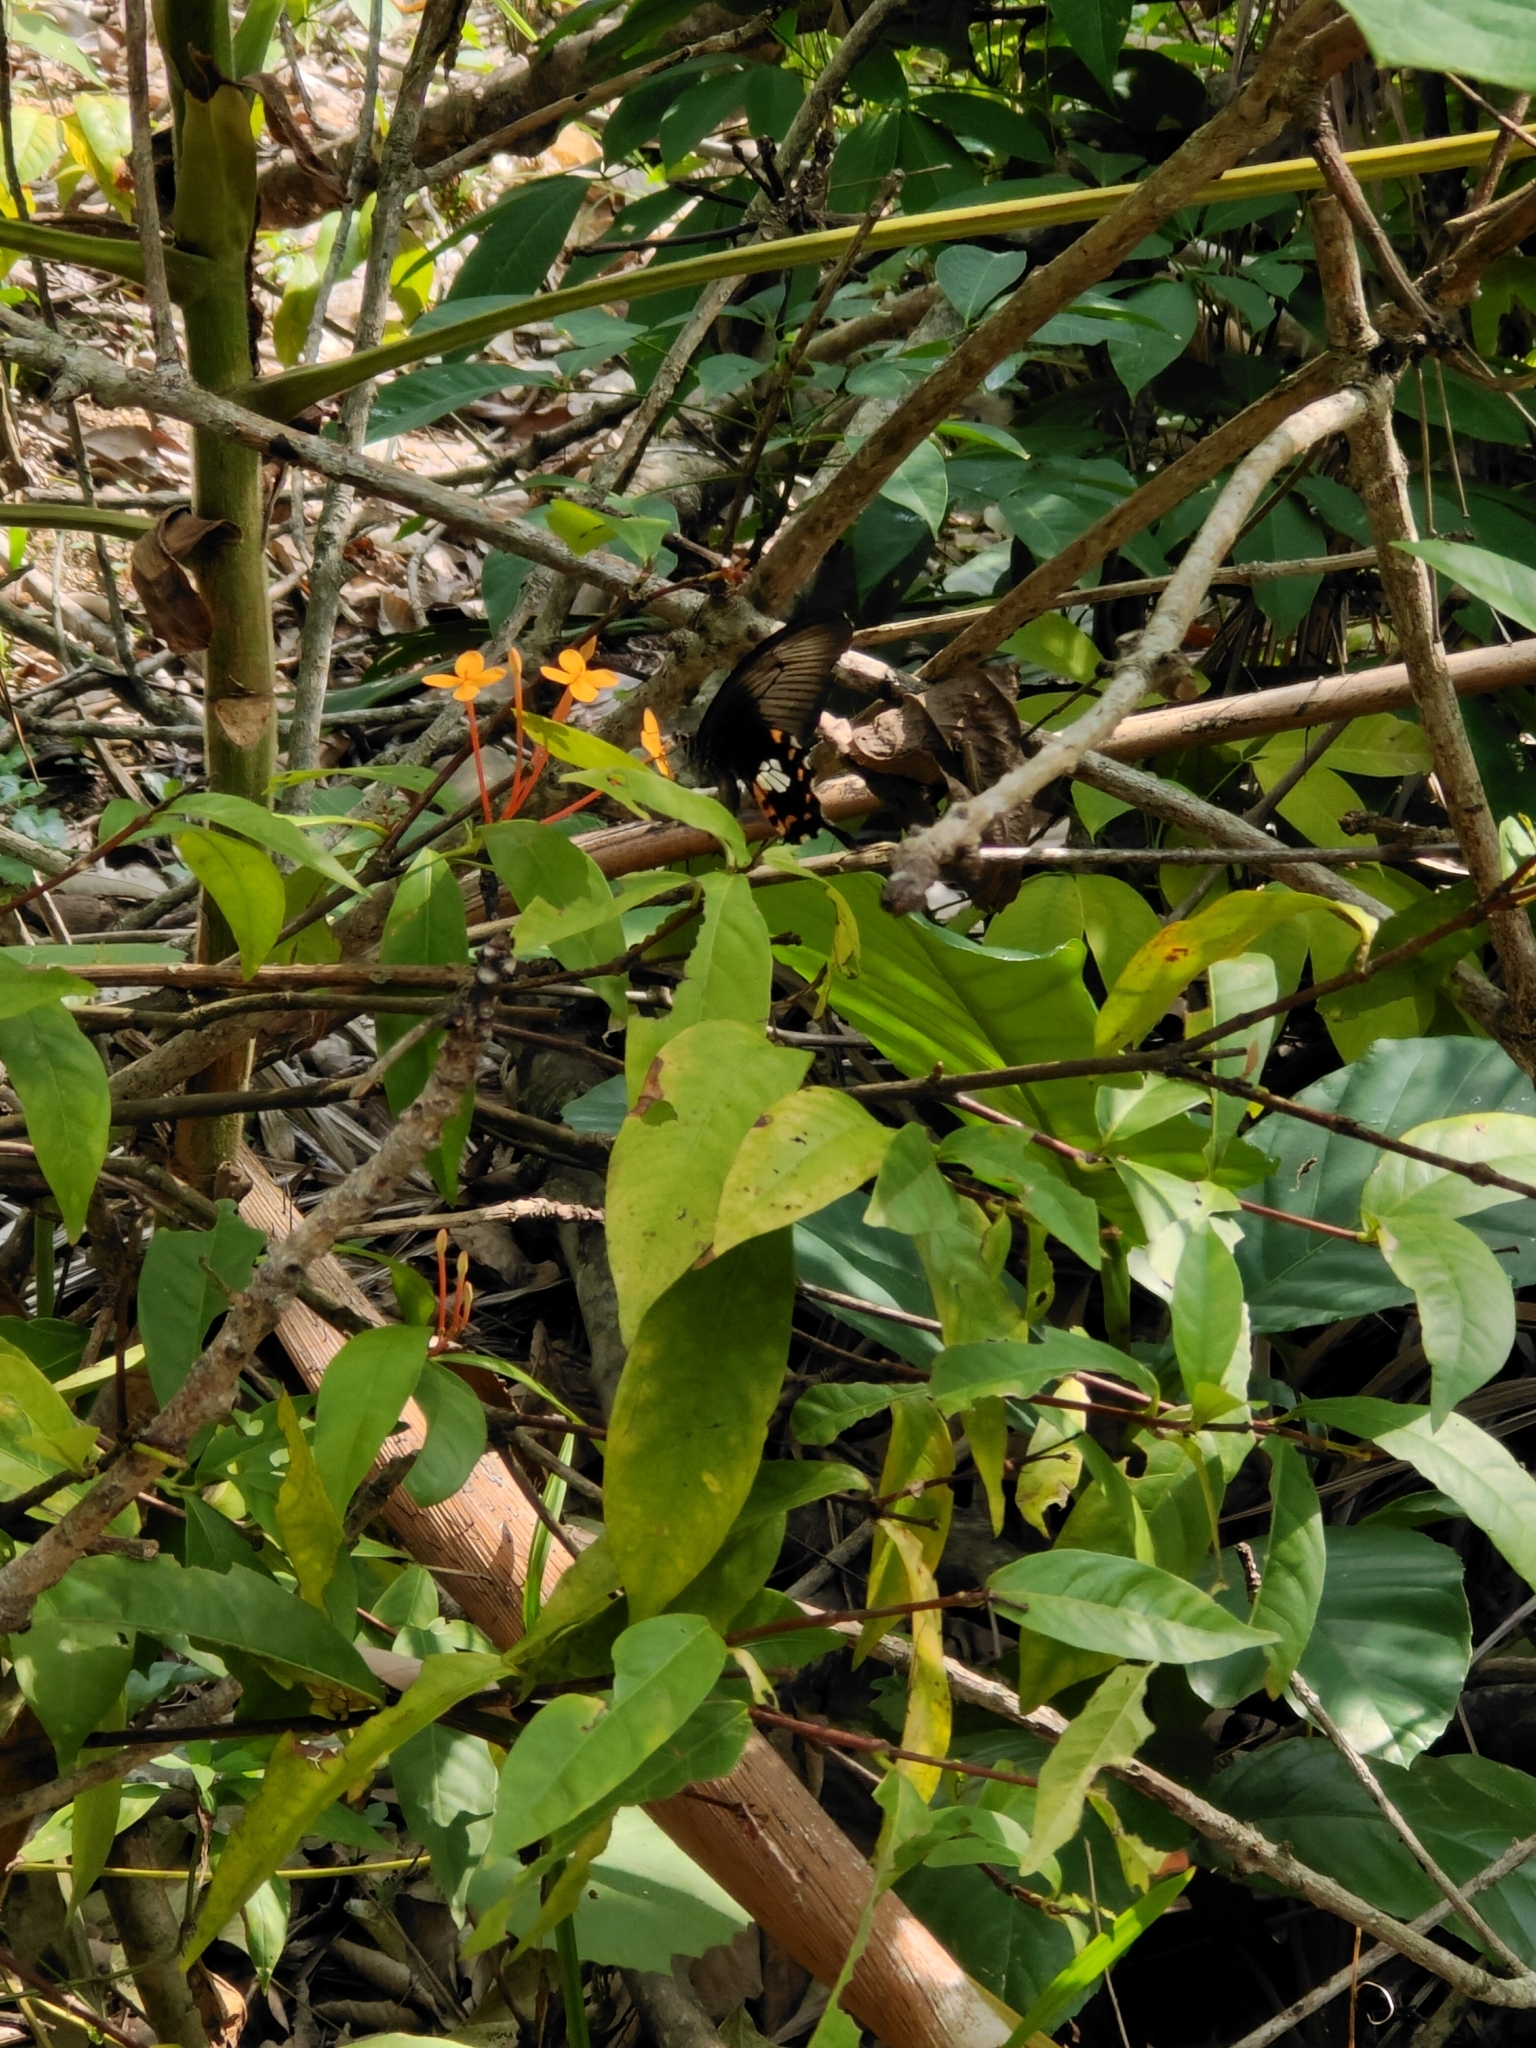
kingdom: Animalia
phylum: Arthropoda
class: Insecta
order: Lepidoptera
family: Papilionidae
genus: Papilio
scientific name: Papilio polytes
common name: Common mormon
